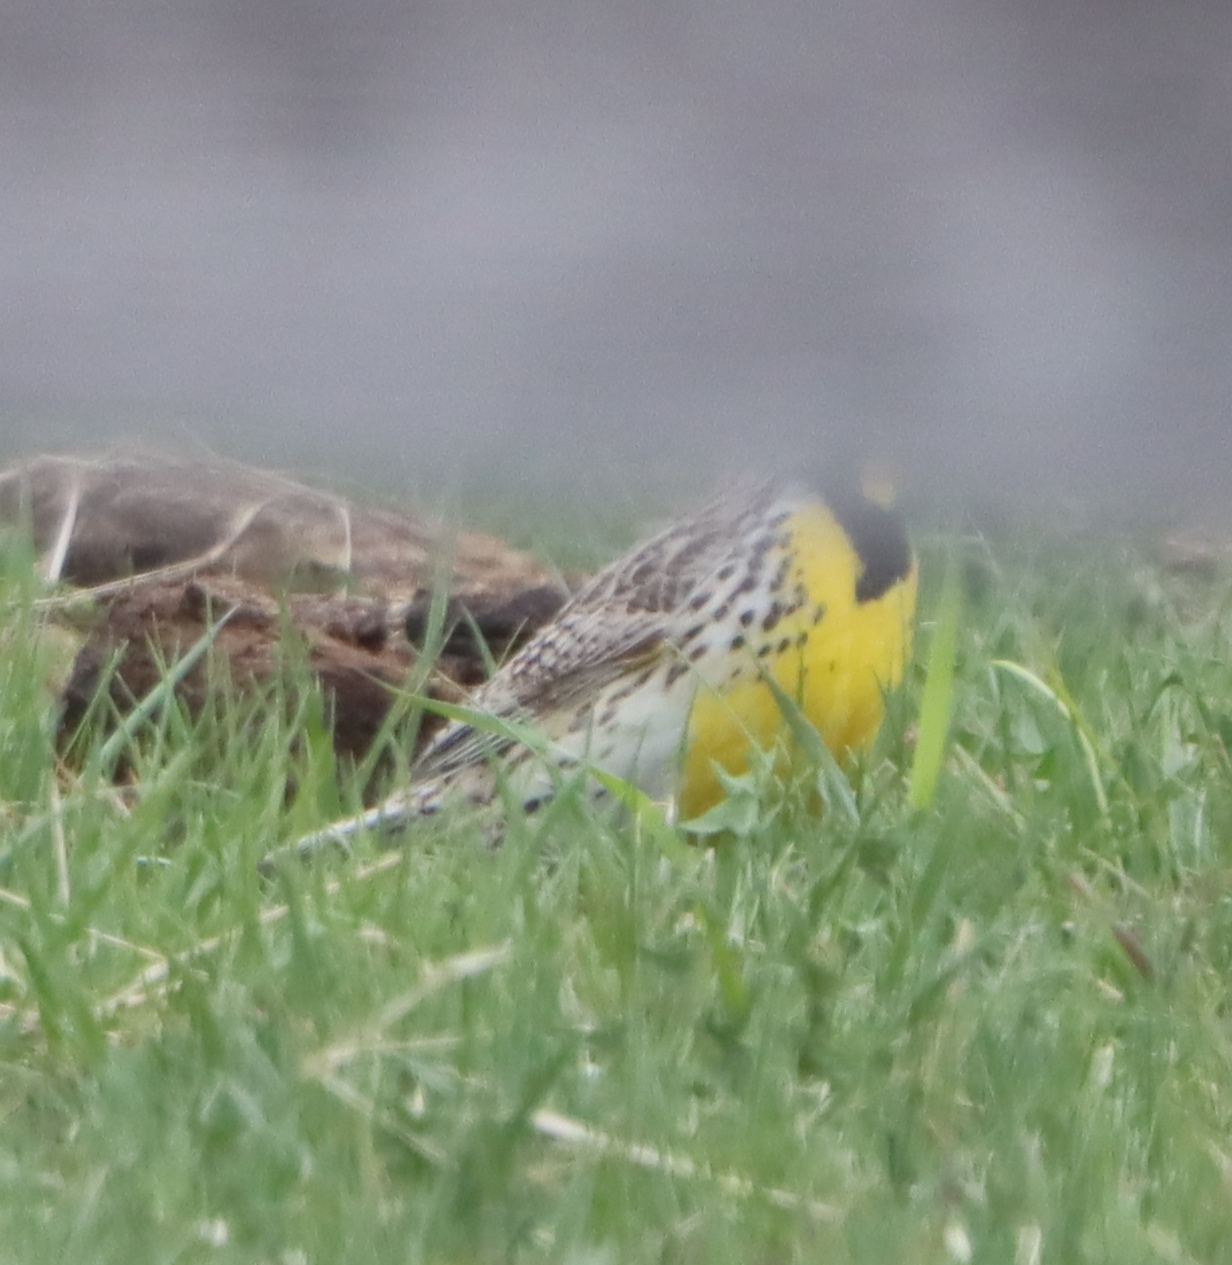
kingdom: Animalia
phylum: Chordata
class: Aves
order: Passeriformes
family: Icteridae
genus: Sturnella
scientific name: Sturnella neglecta
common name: Western meadowlark
